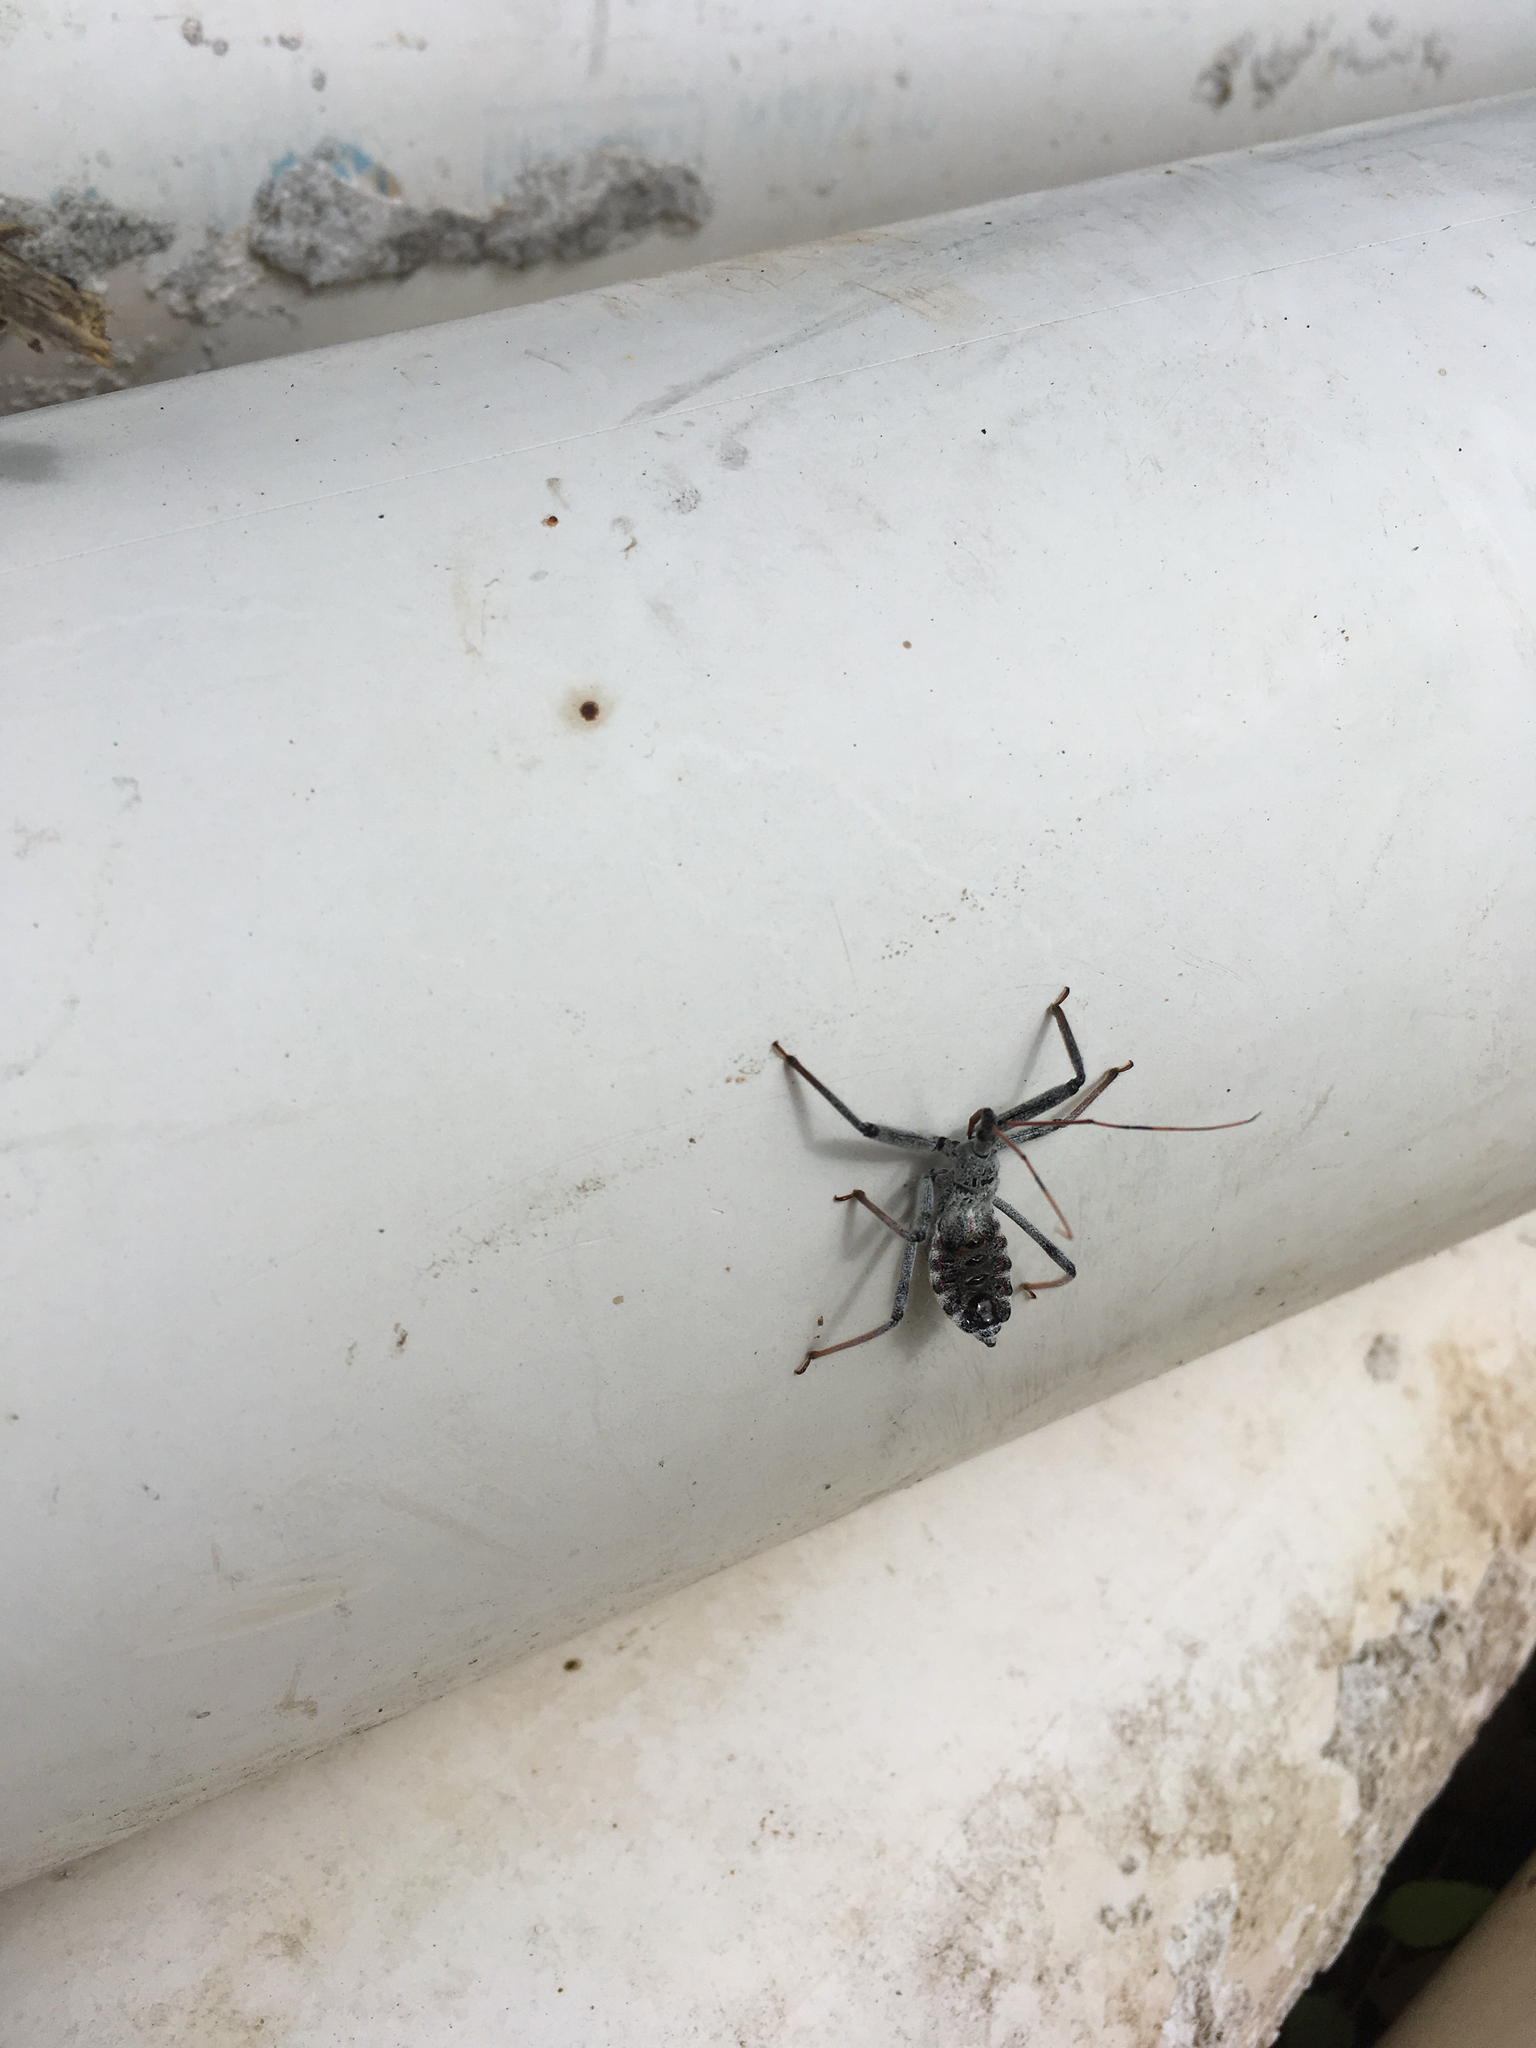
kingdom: Animalia
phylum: Arthropoda
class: Insecta
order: Hemiptera
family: Reduviidae
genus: Arilus
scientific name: Arilus cristatus
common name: North american wheel bug
